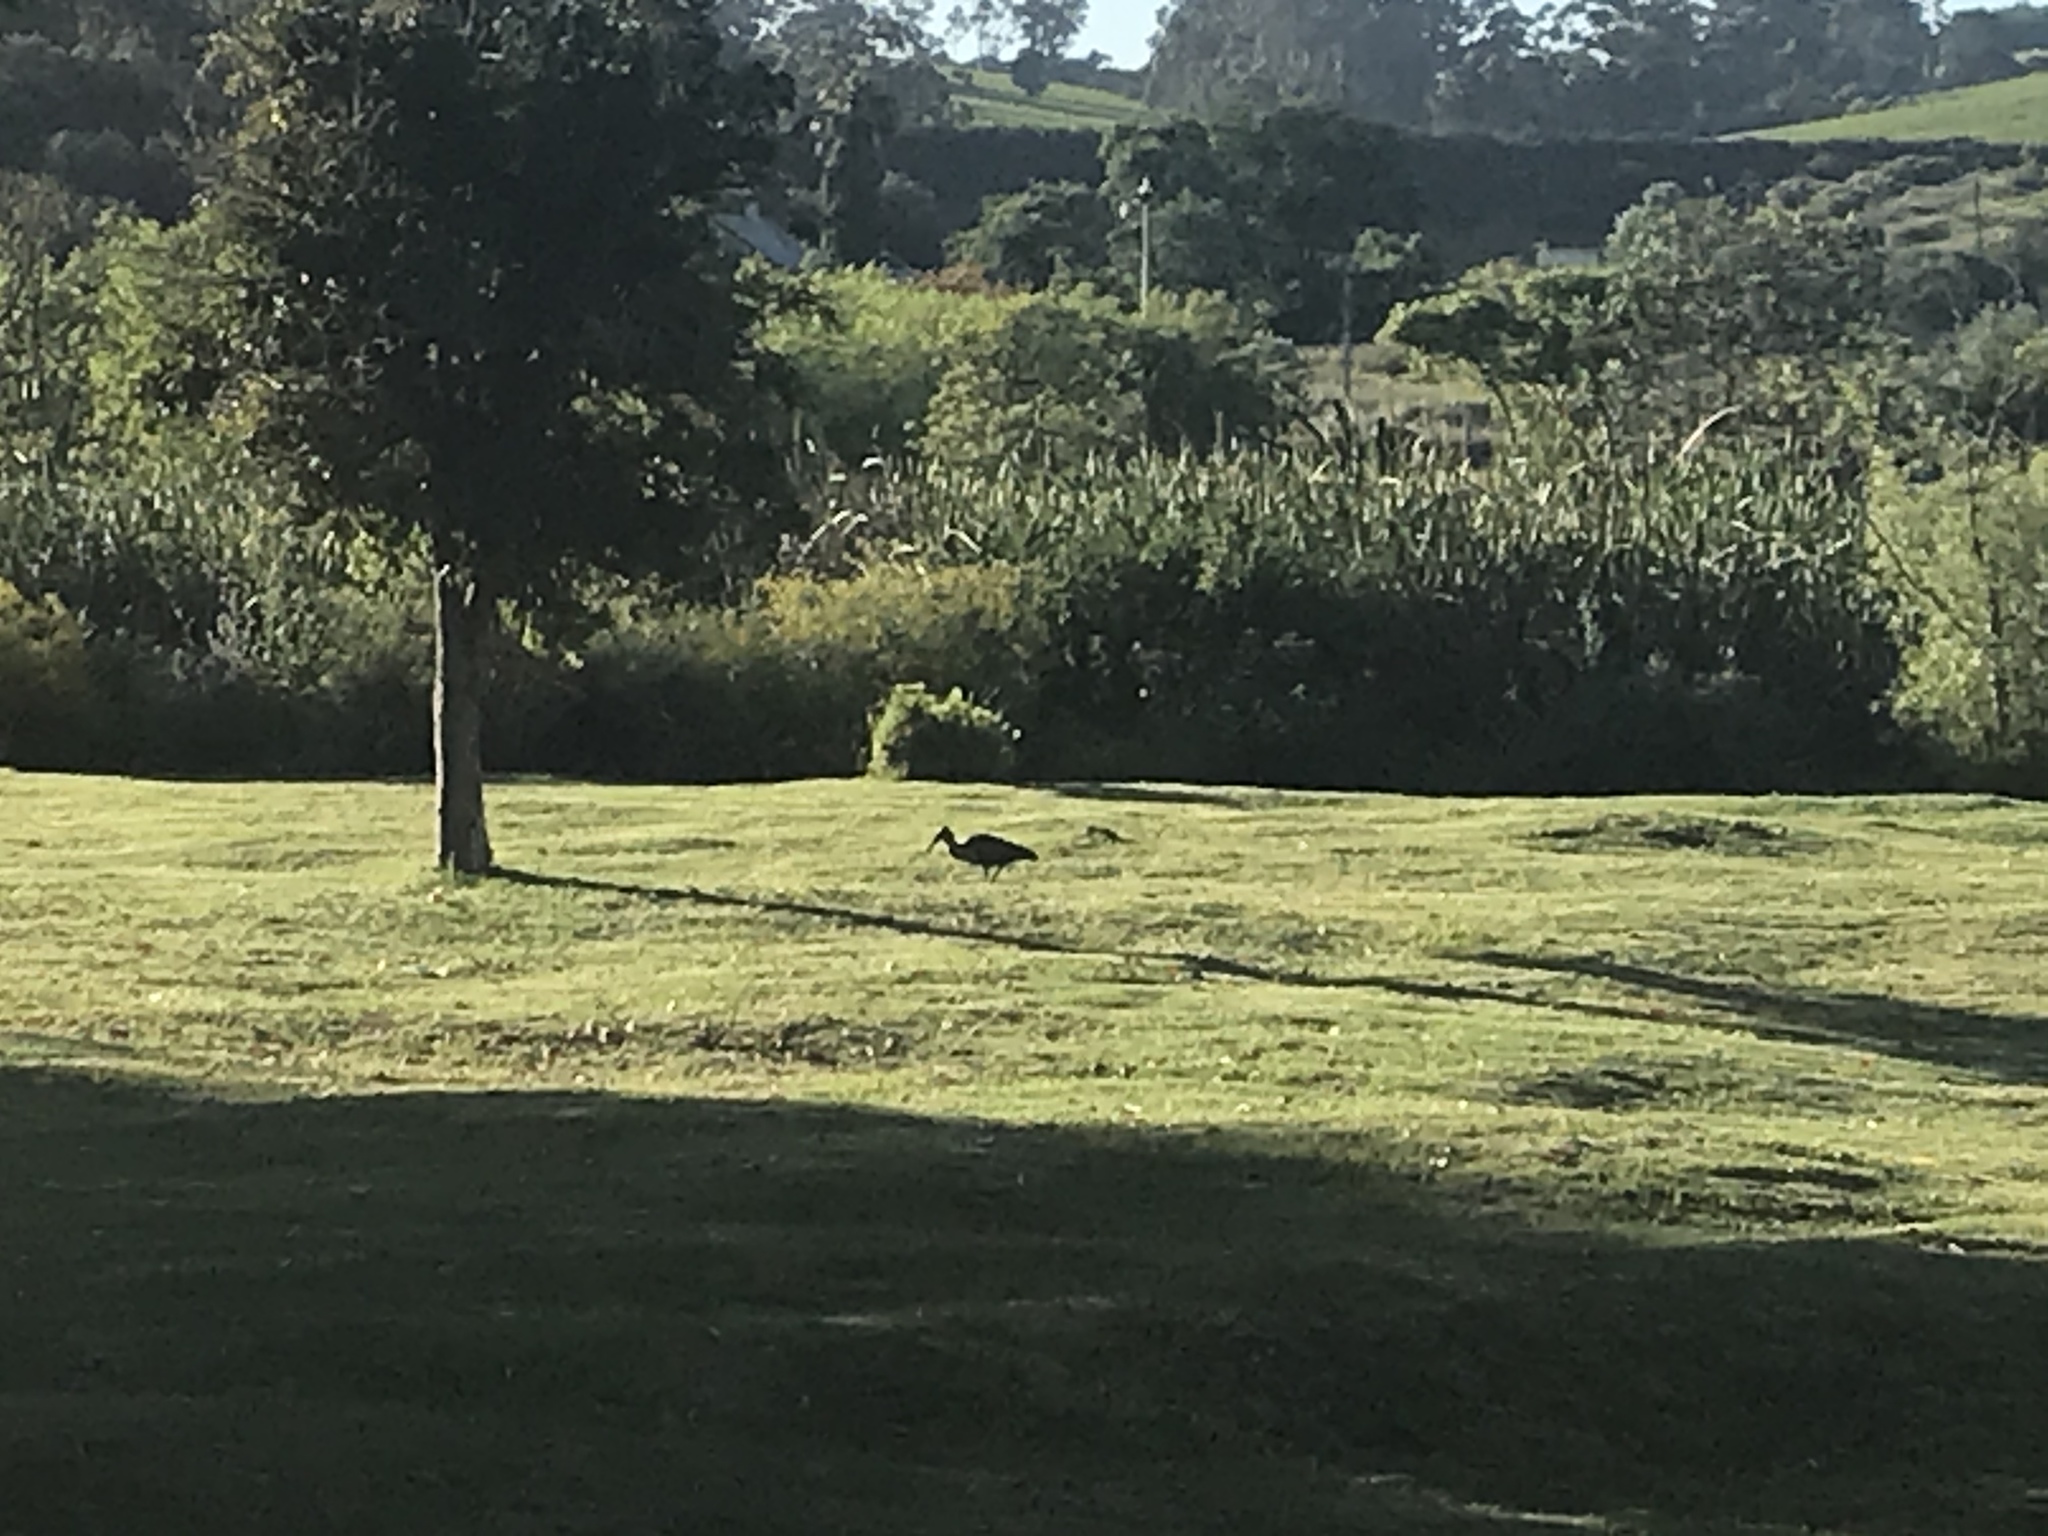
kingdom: Animalia
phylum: Chordata
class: Aves
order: Pelecaniformes
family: Threskiornithidae
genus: Bostrychia
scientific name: Bostrychia hagedash
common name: Hadada ibis
